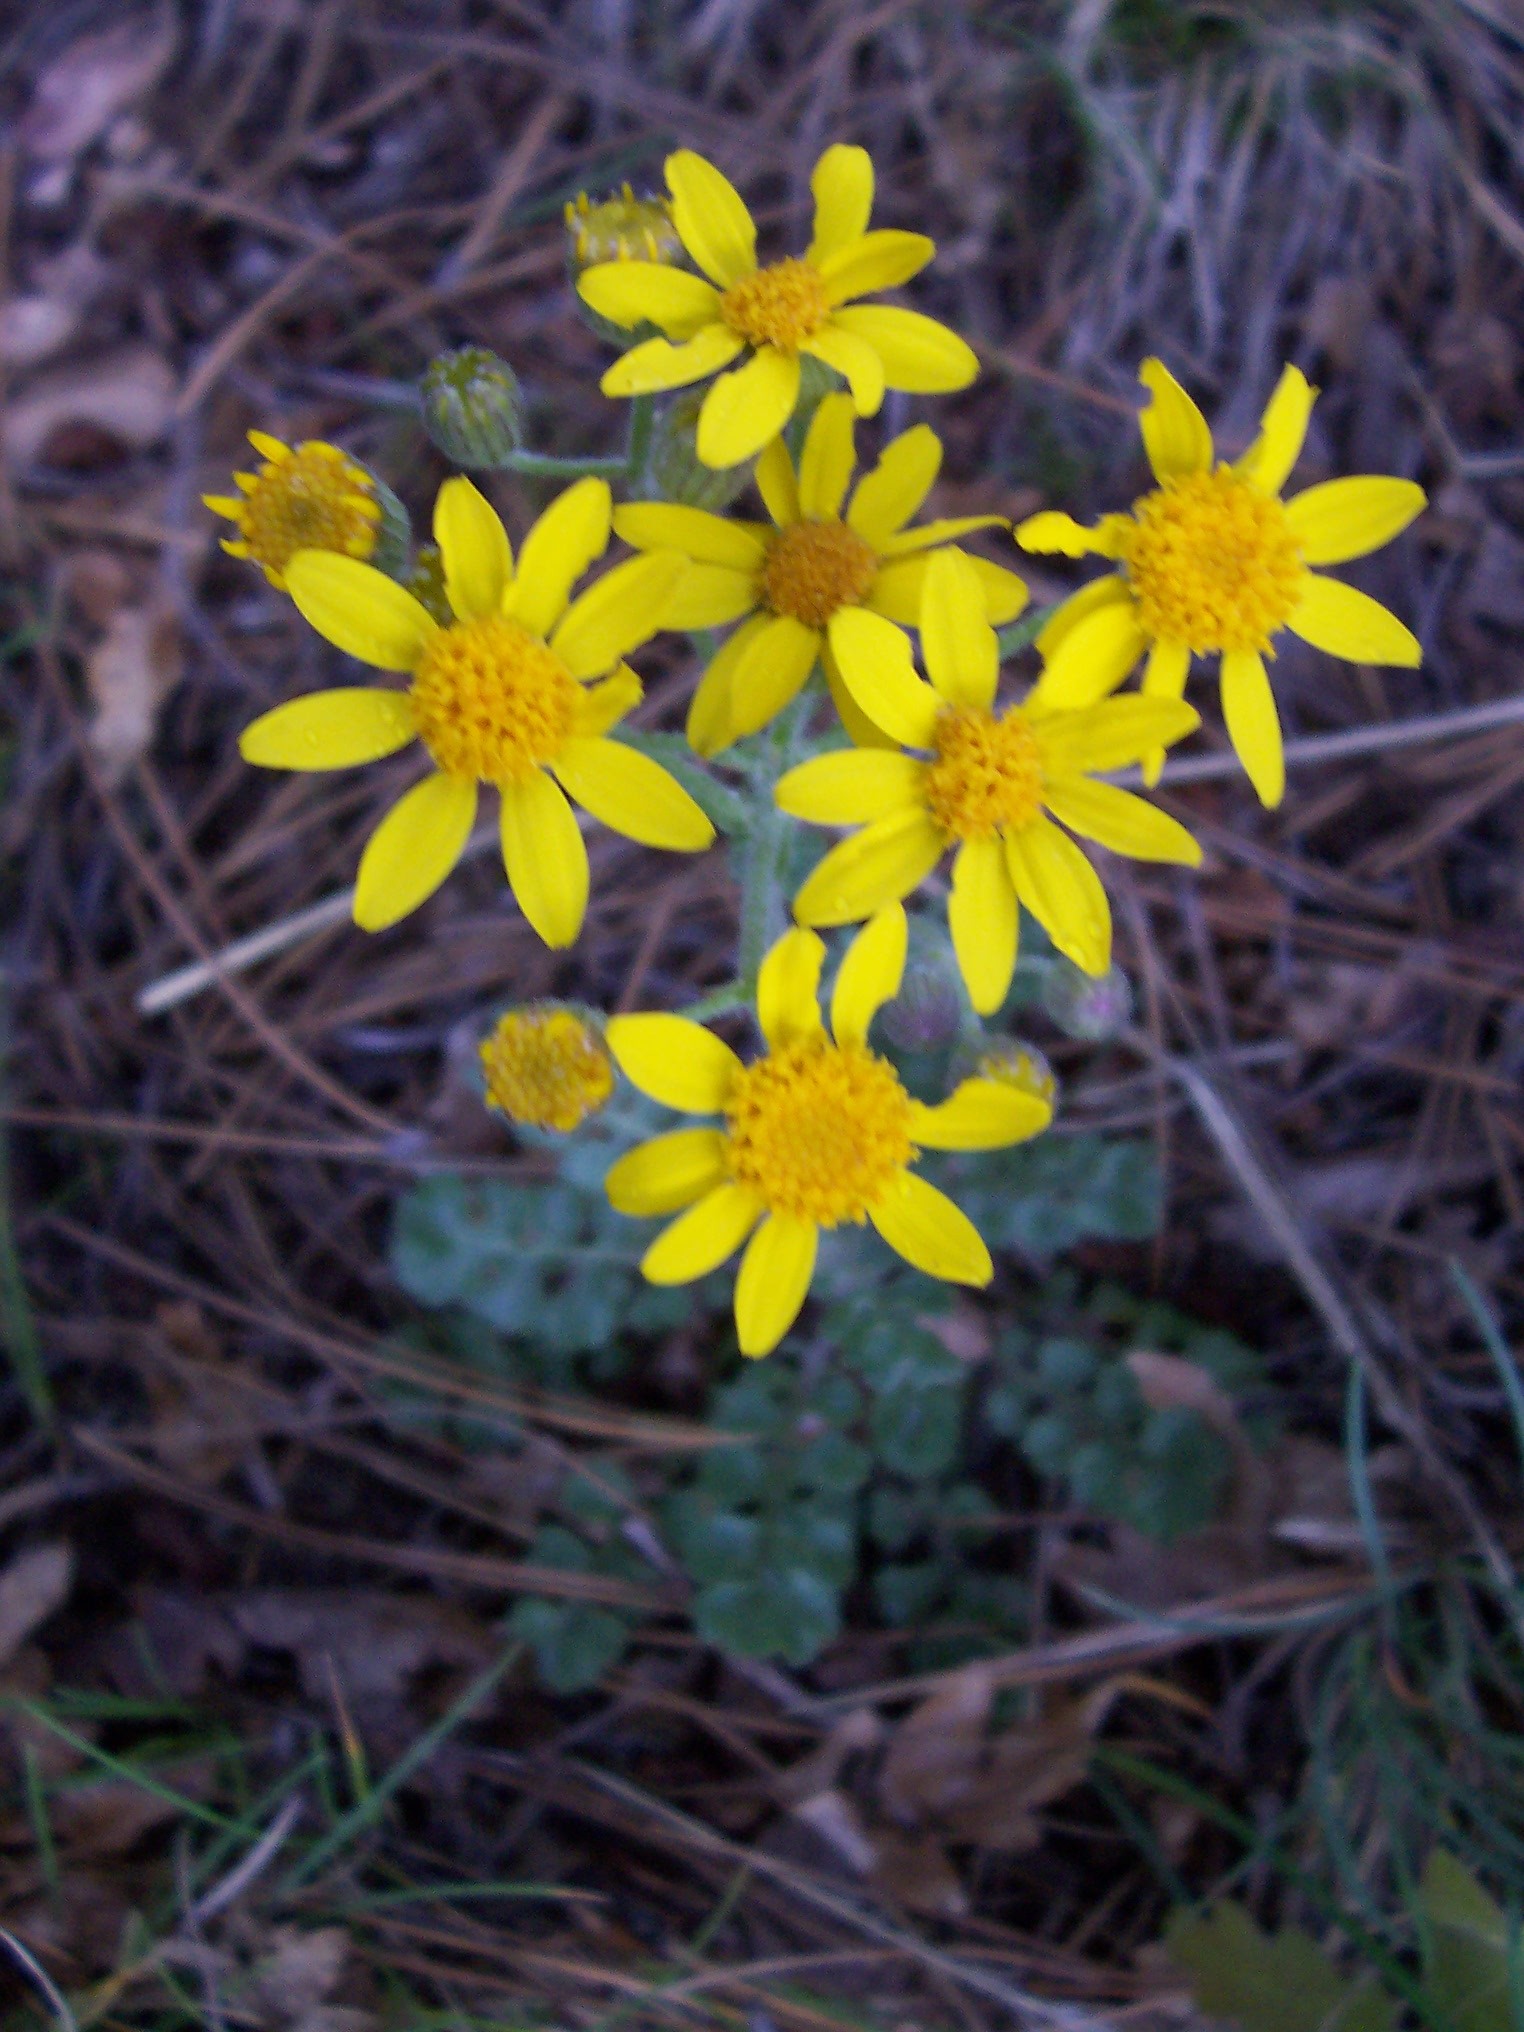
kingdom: Plantae
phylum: Tracheophyta
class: Magnoliopsida
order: Asterales
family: Asteraceae
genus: Packera
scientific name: Packera multilobata
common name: Lobe-leaf groundsel
